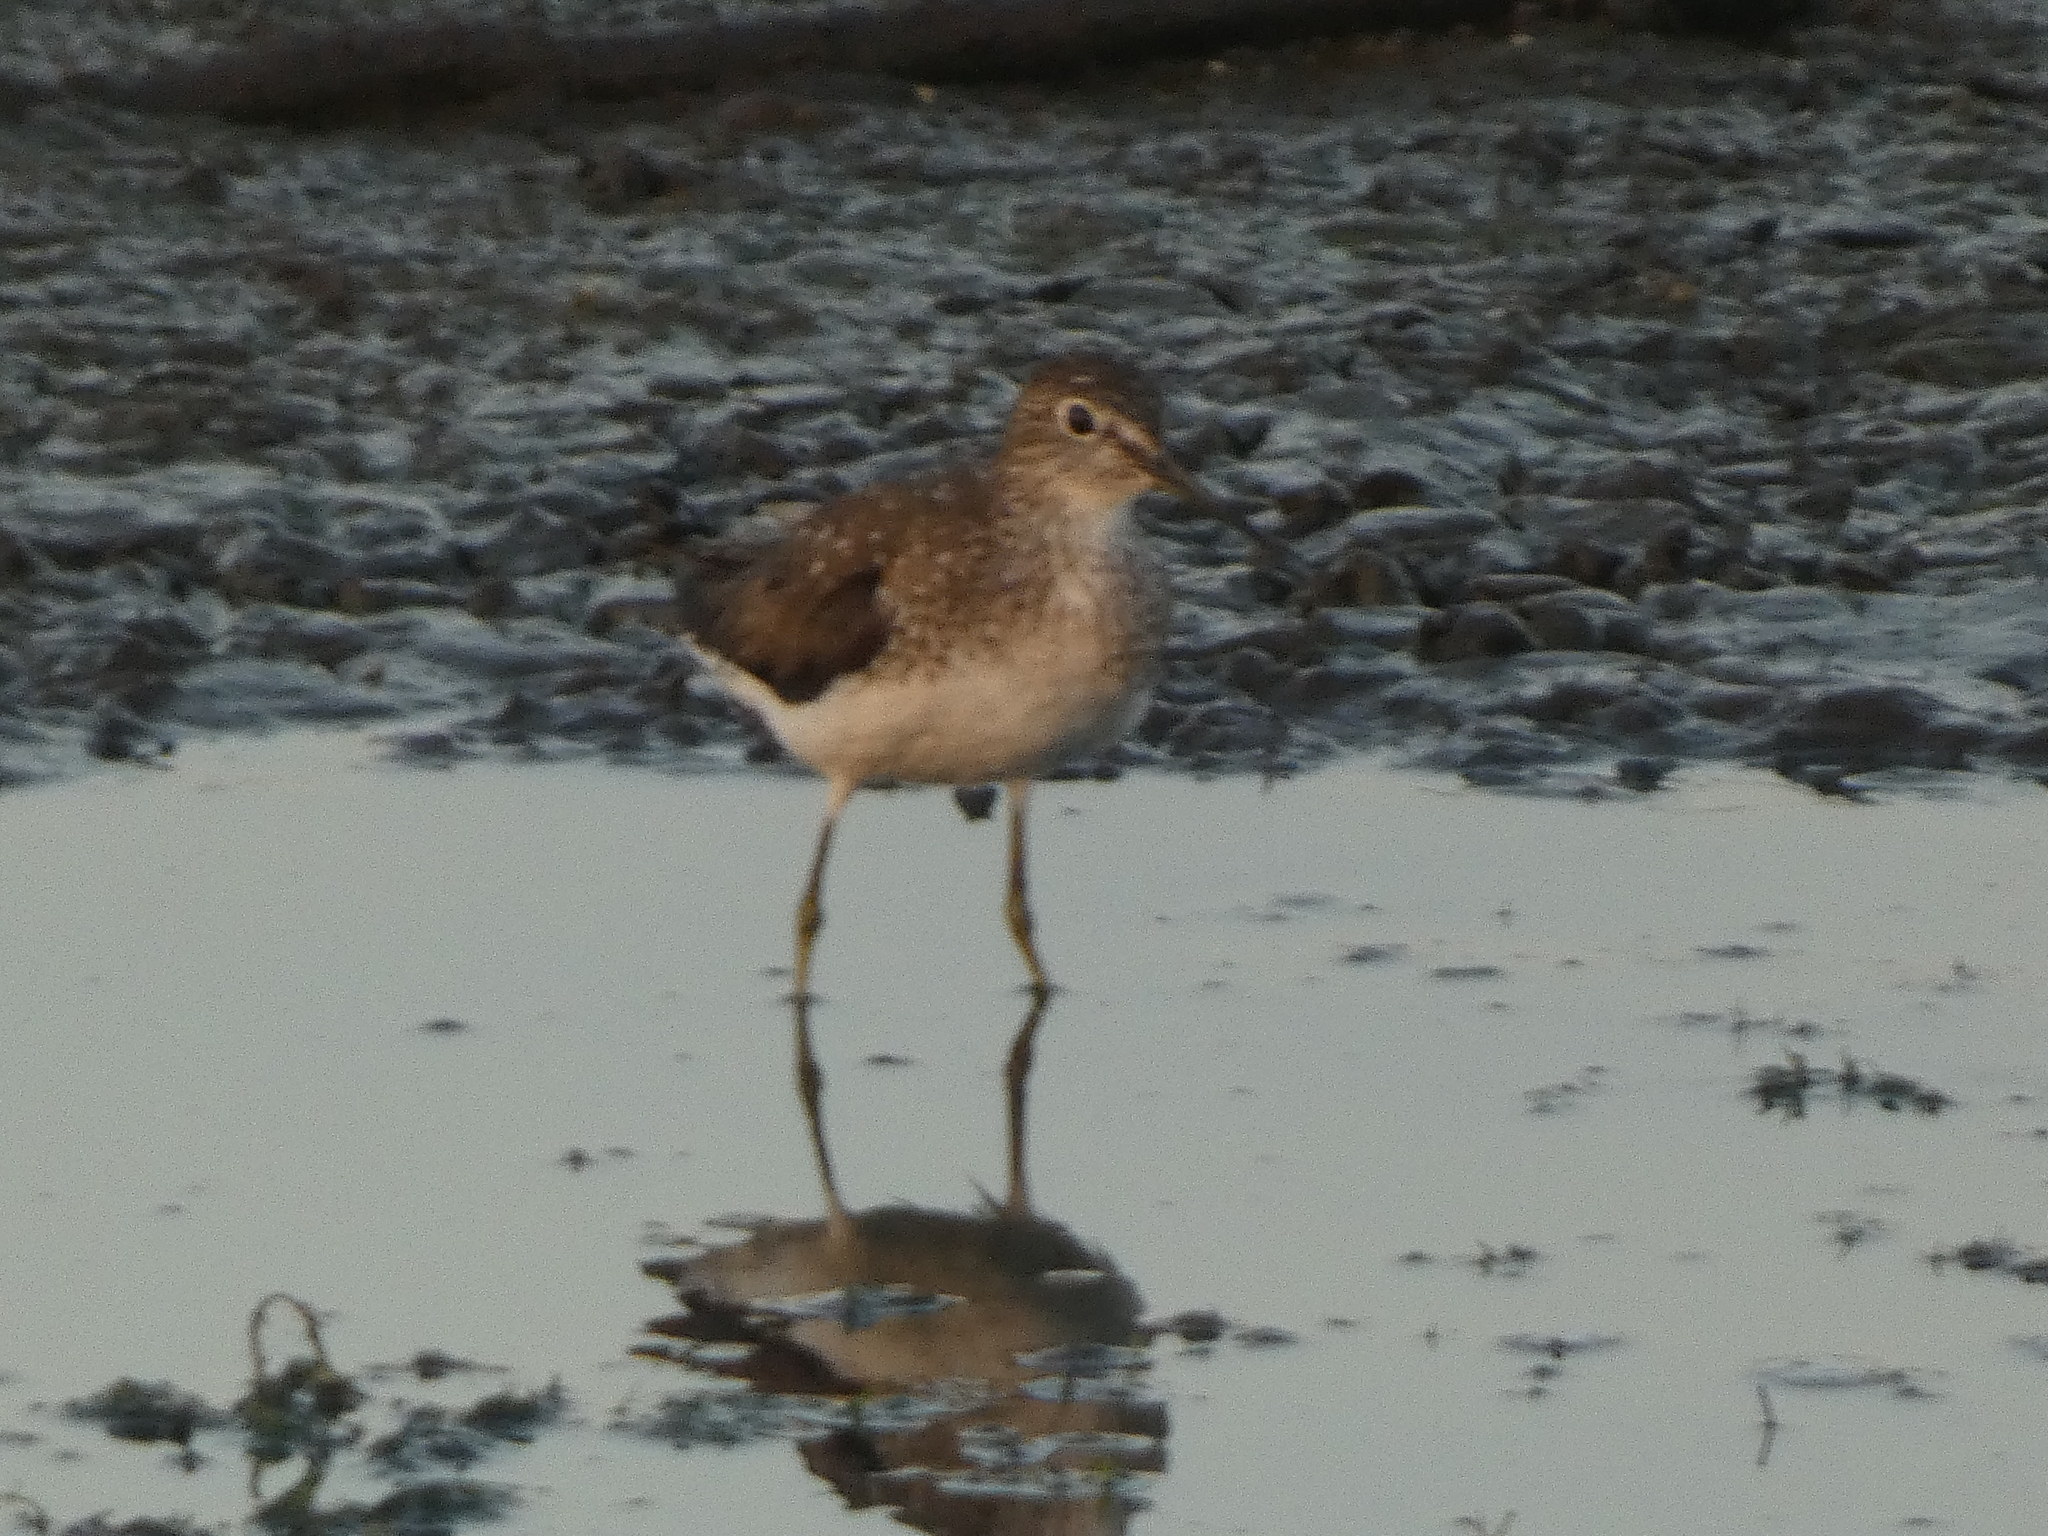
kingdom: Animalia
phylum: Chordata
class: Aves
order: Charadriiformes
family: Scolopacidae
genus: Tringa
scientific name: Tringa solitaria
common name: Solitary sandpiper
